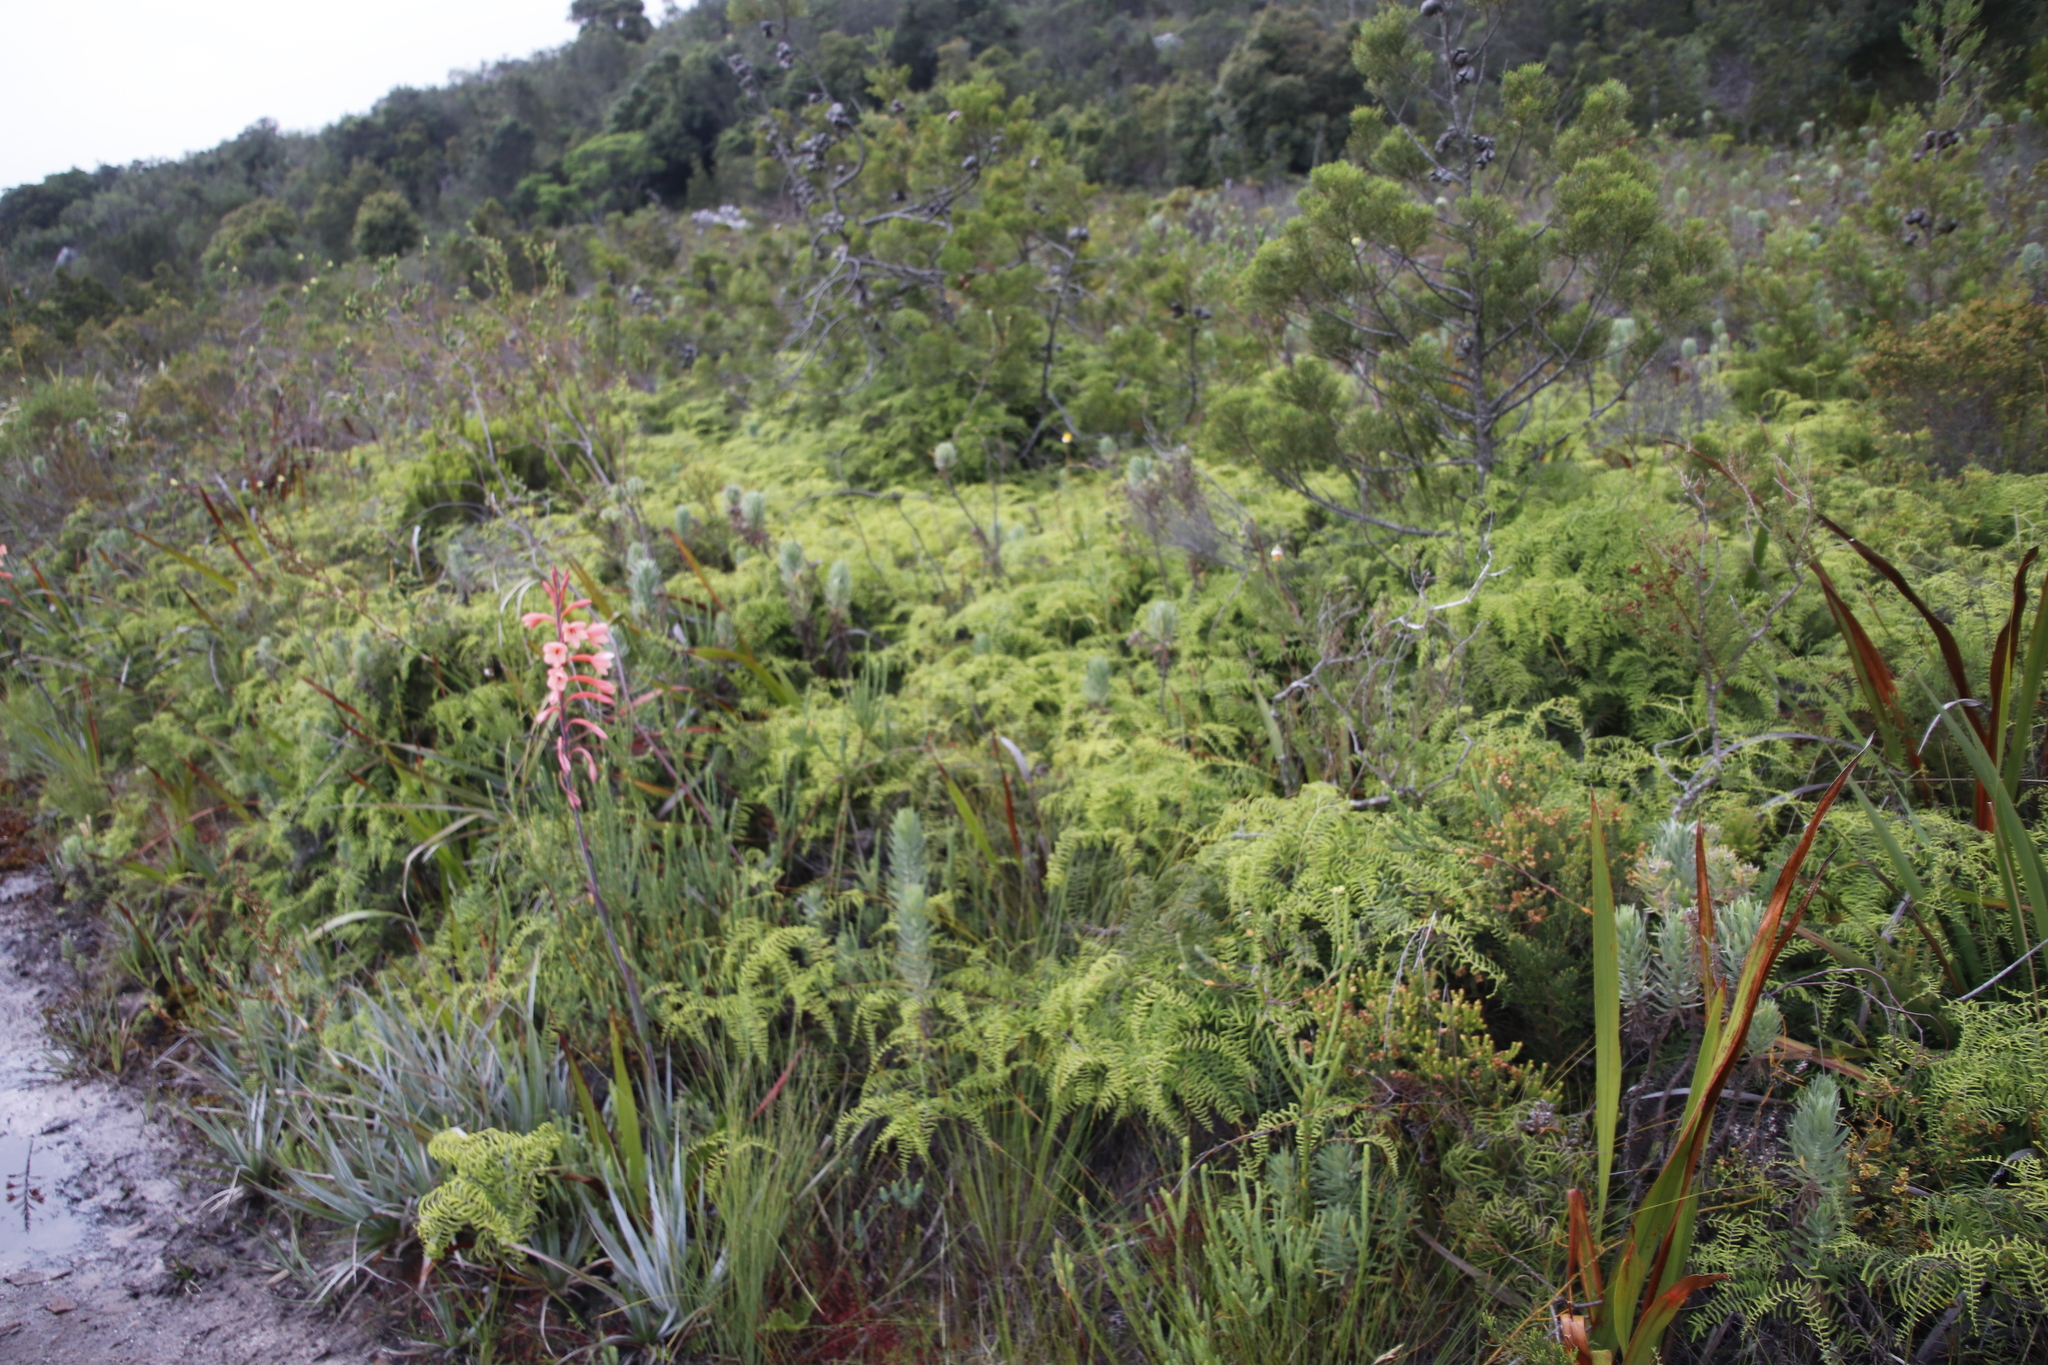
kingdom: Plantae
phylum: Tracheophyta
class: Polypodiopsida
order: Gleicheniales
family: Gleicheniaceae
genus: Gleichenia
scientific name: Gleichenia polypodioides
